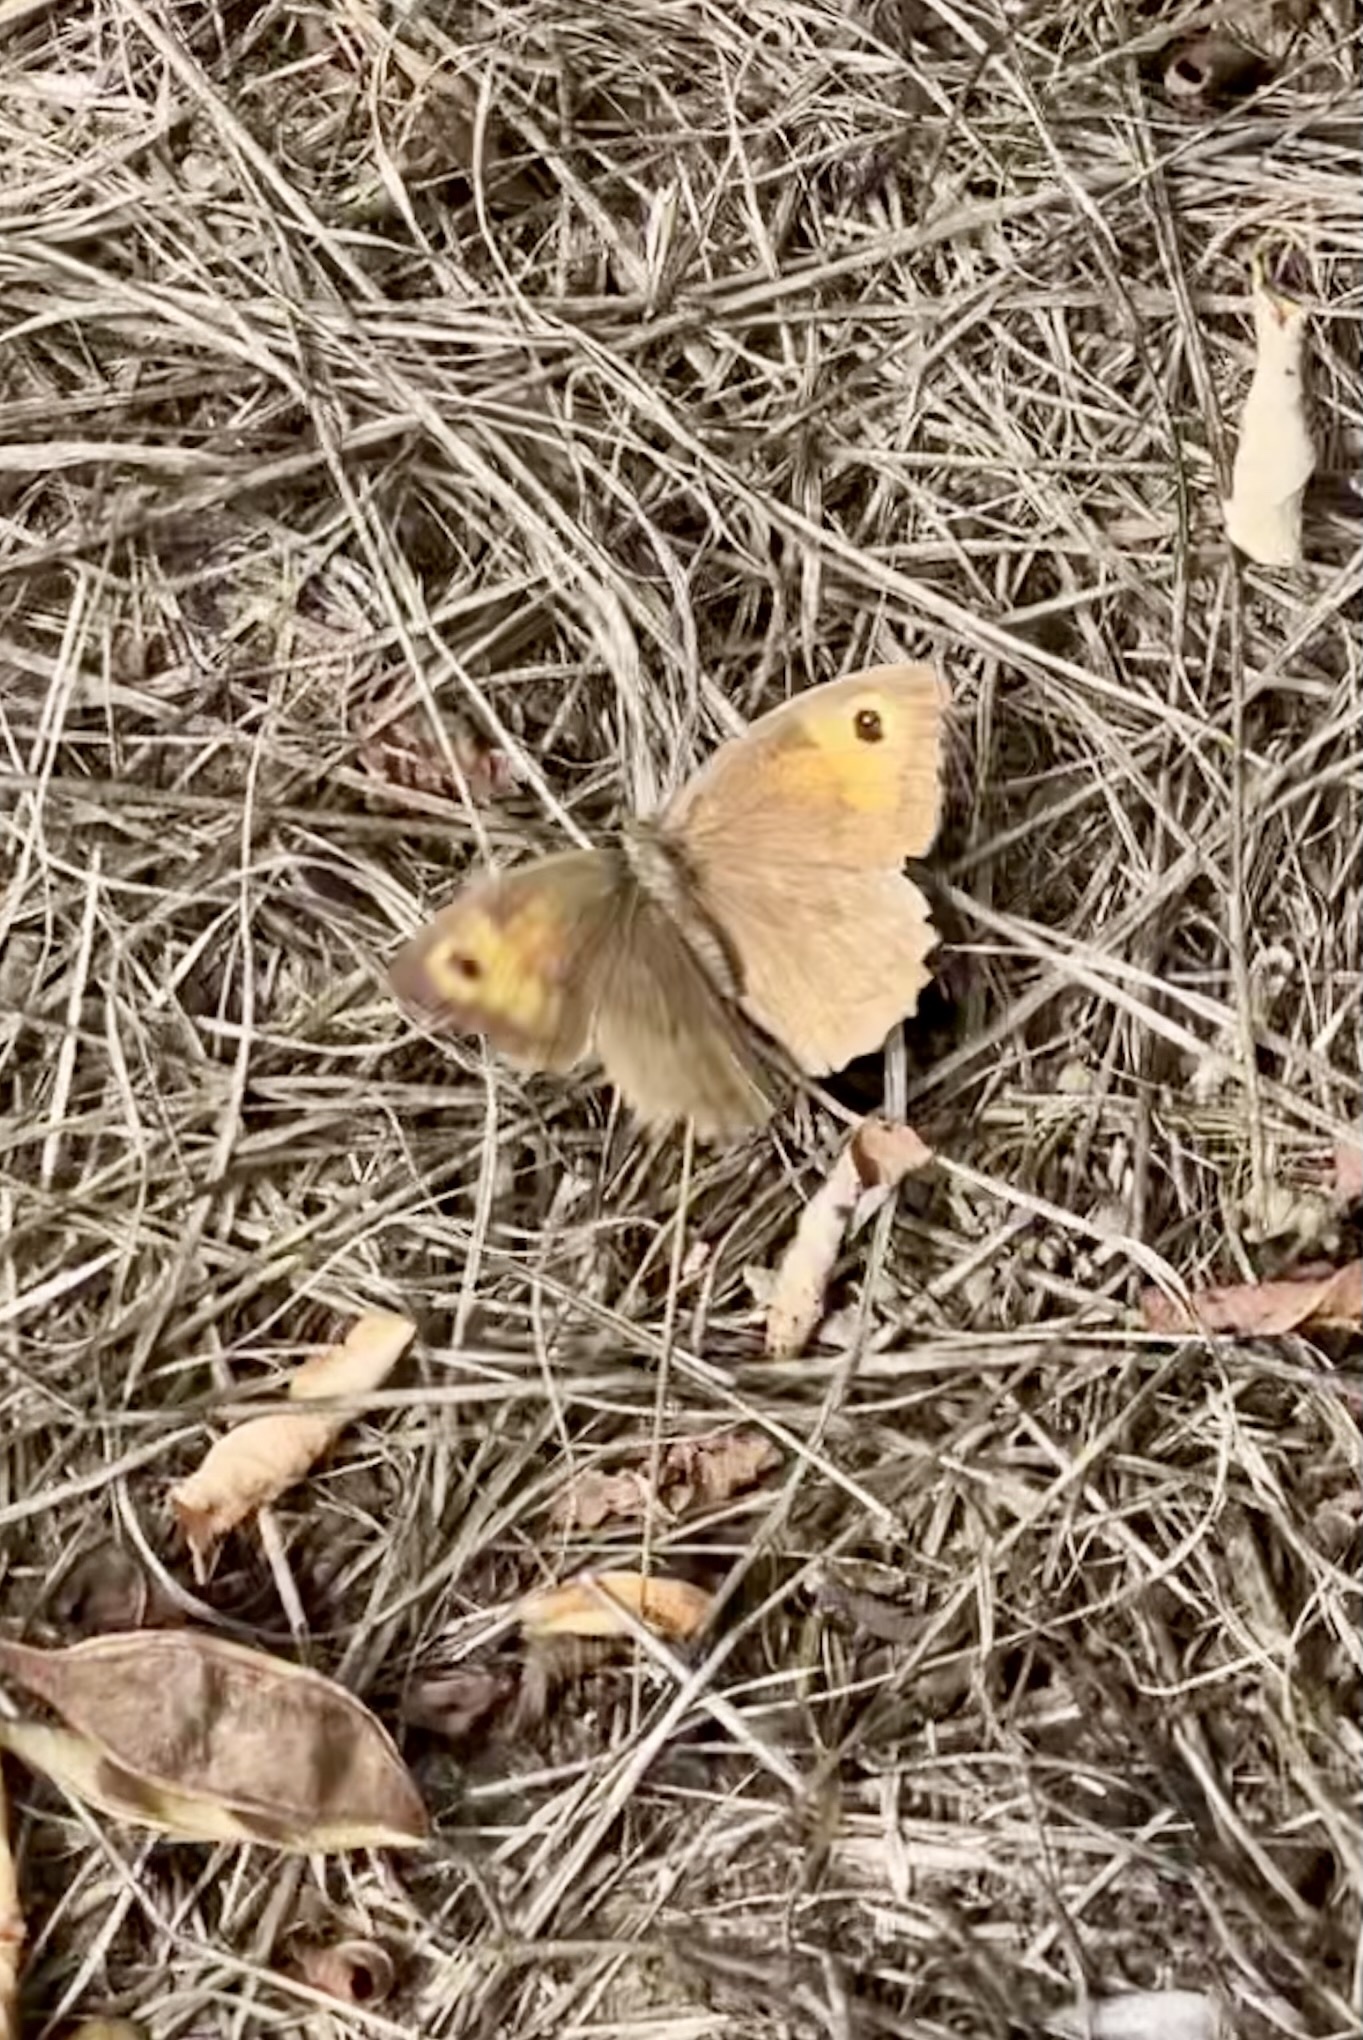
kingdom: Animalia
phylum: Arthropoda
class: Insecta
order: Lepidoptera
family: Nymphalidae
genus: Maniola
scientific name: Maniola jurtina
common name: Meadow brown
